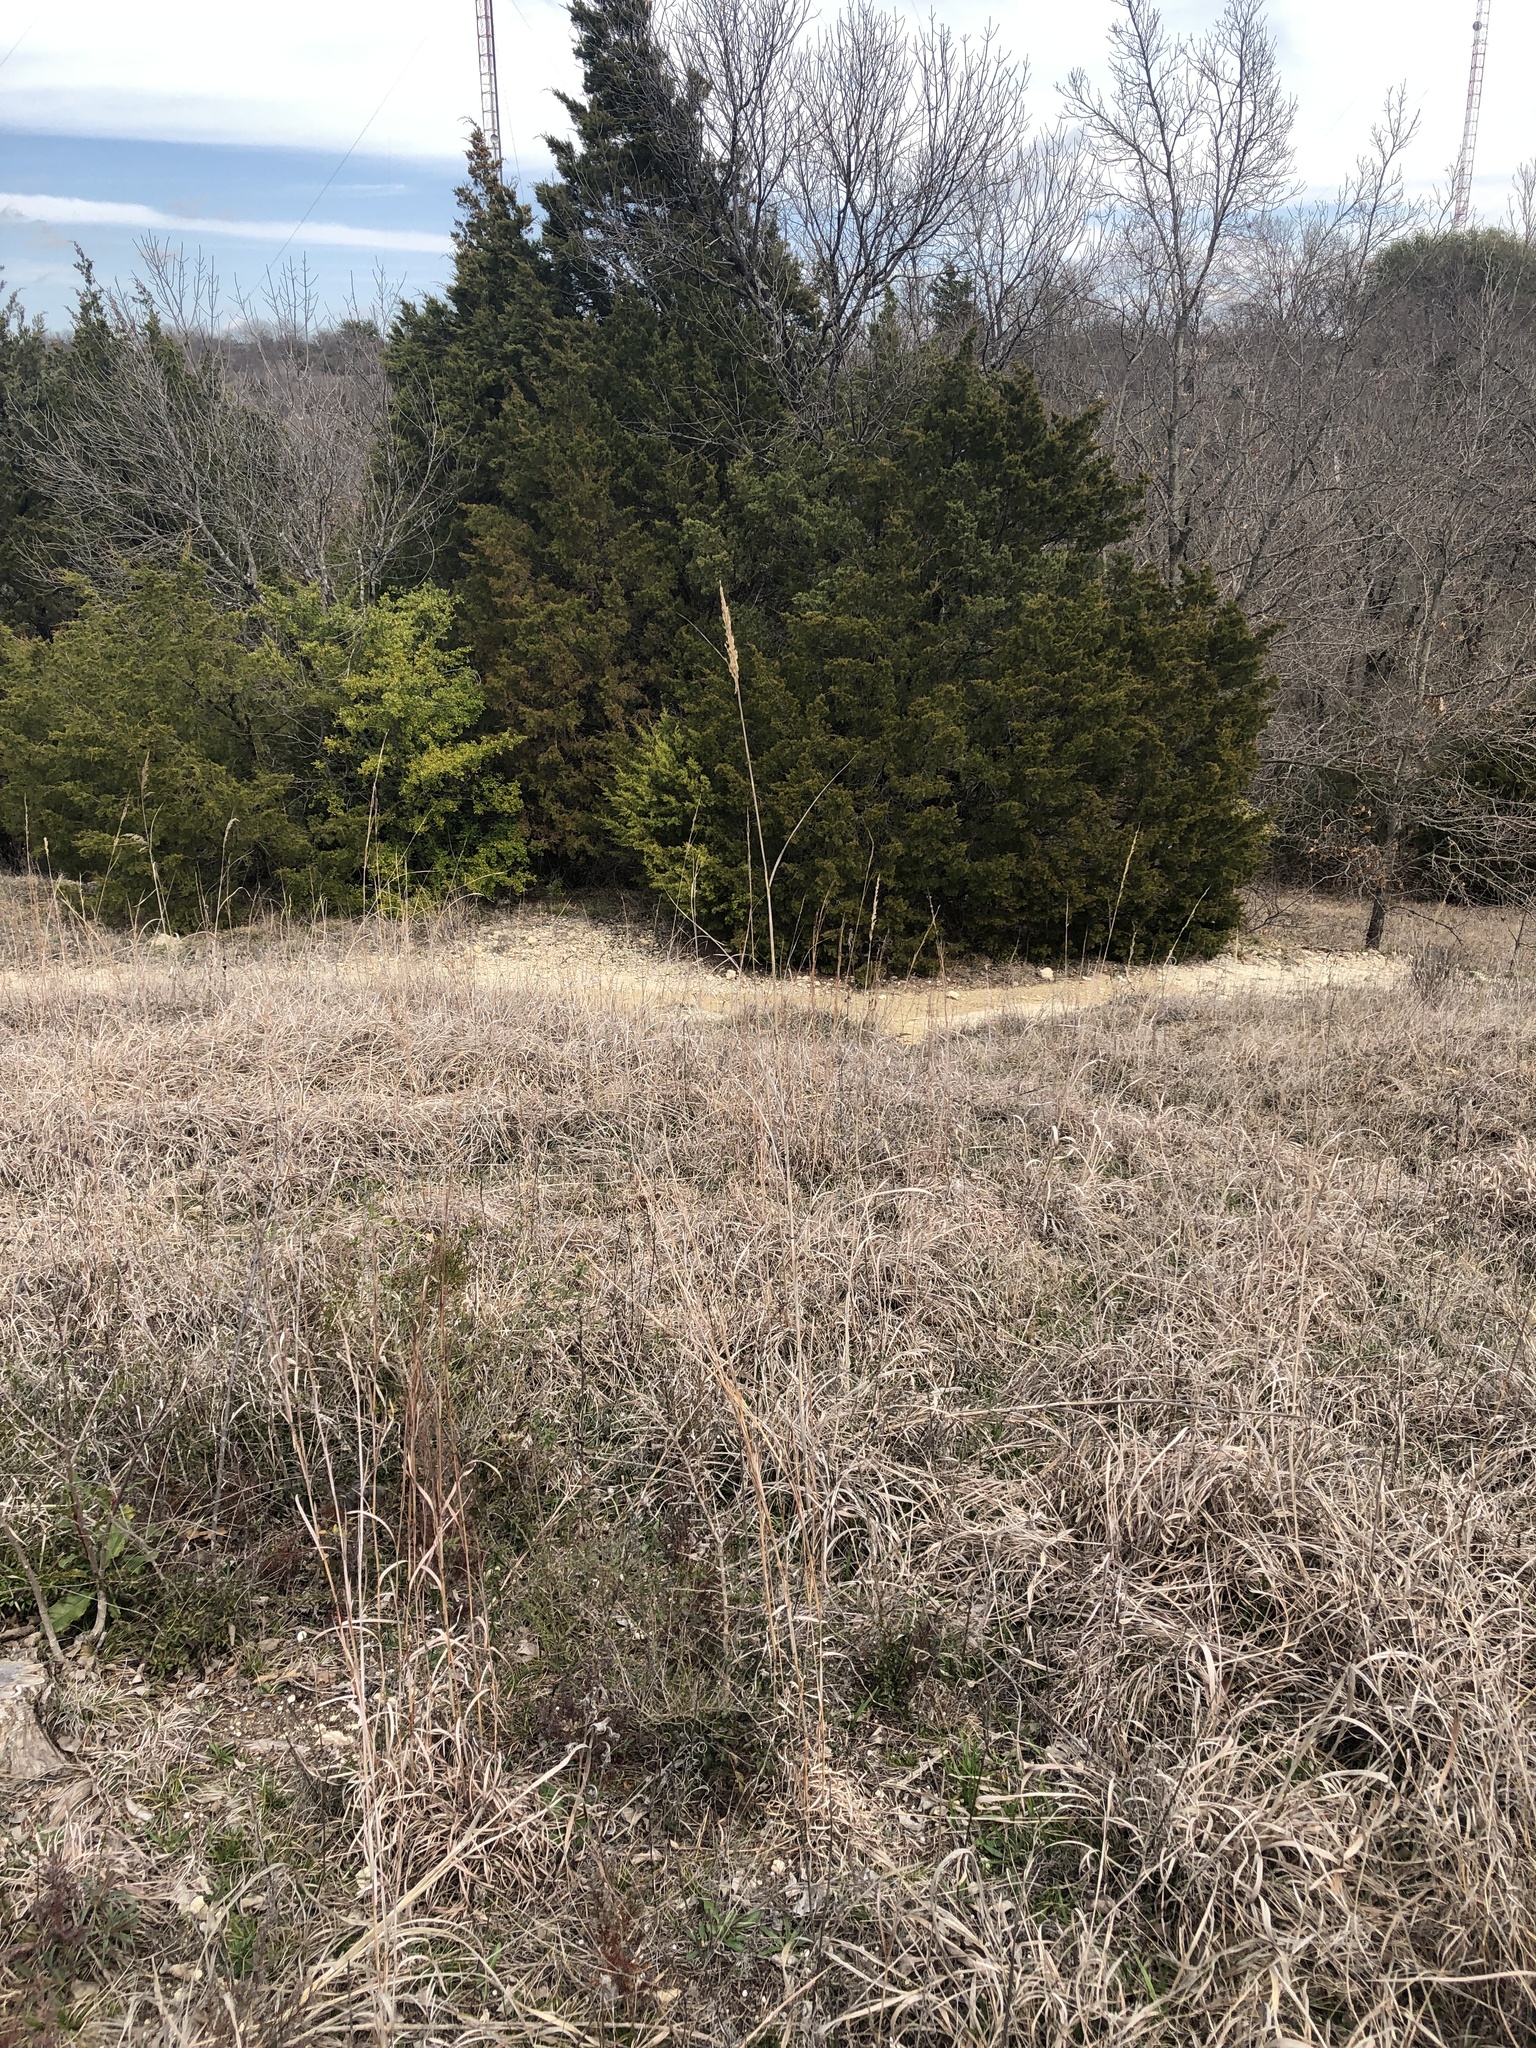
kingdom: Plantae
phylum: Tracheophyta
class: Liliopsida
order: Poales
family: Poaceae
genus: Sorghastrum
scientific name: Sorghastrum nutans
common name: Indian grass
